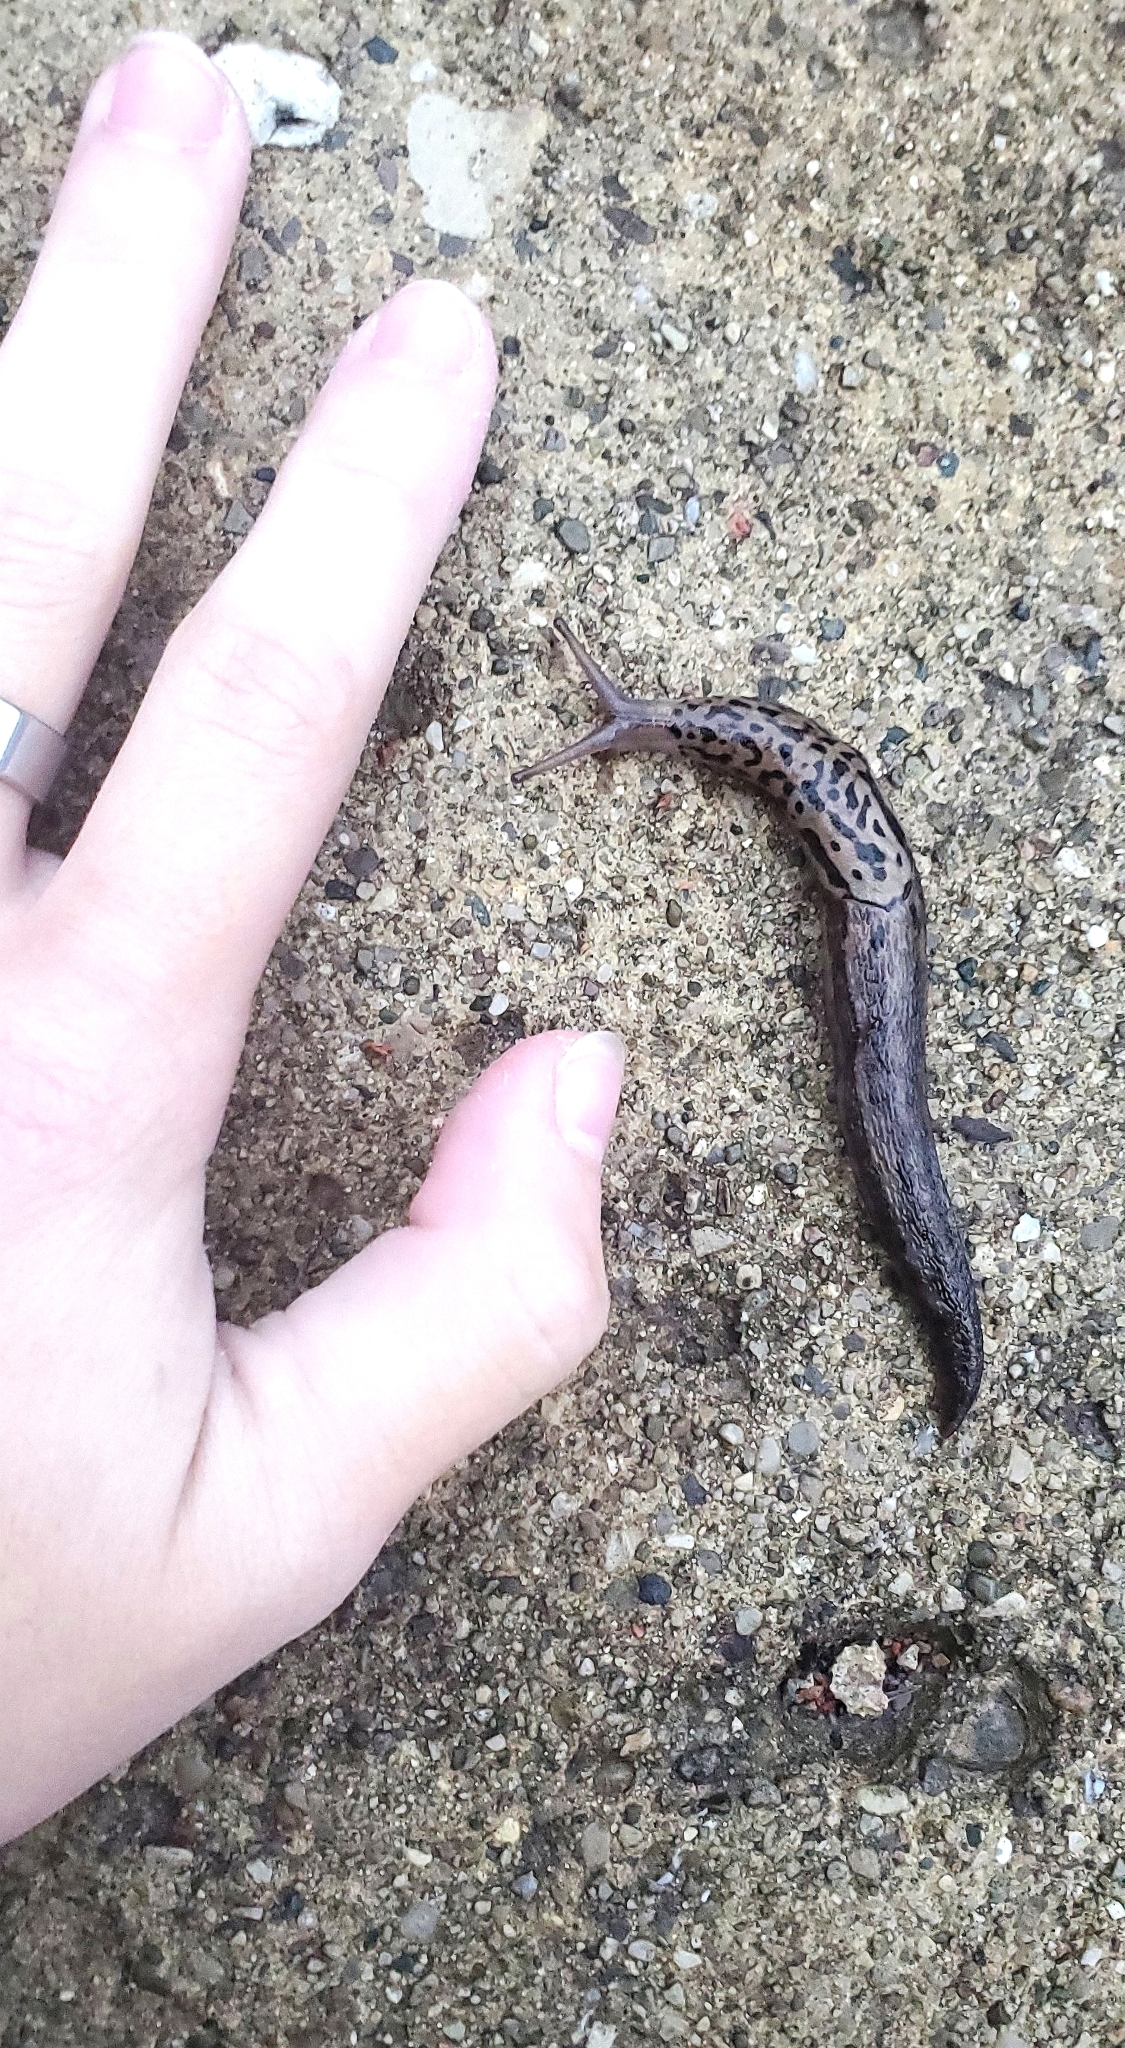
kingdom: Animalia
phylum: Mollusca
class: Gastropoda
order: Stylommatophora
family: Limacidae
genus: Limax
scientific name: Limax maximus
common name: Great grey slug
